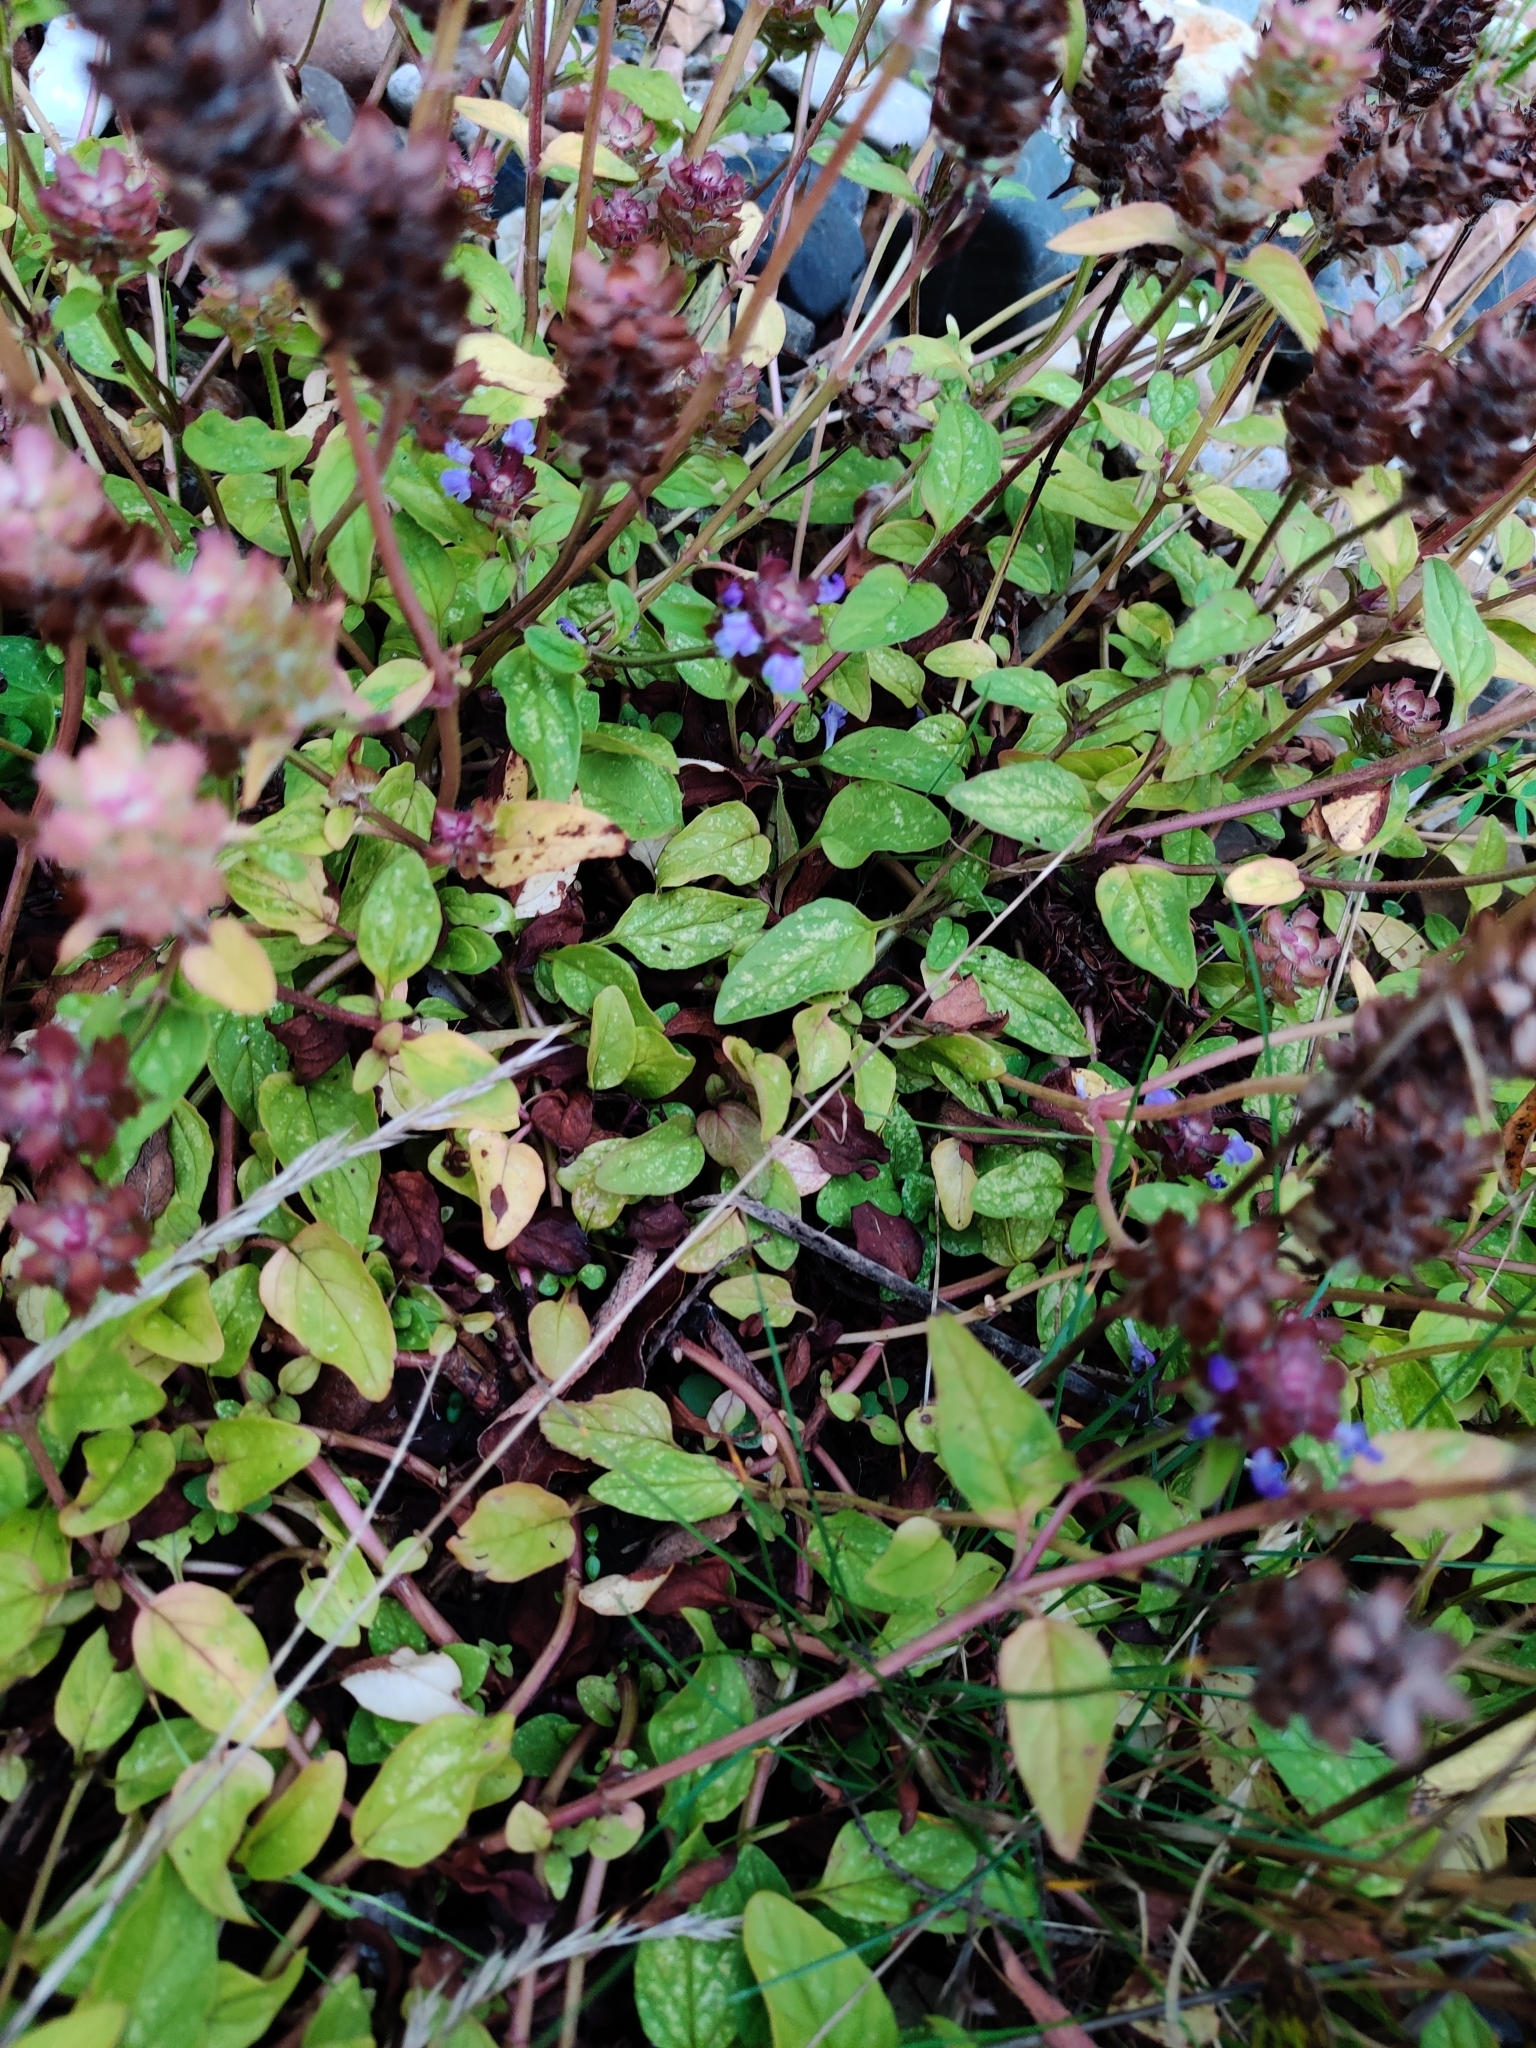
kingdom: Plantae
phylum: Tracheophyta
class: Magnoliopsida
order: Lamiales
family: Lamiaceae
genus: Prunella
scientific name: Prunella vulgaris
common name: Heal-all
